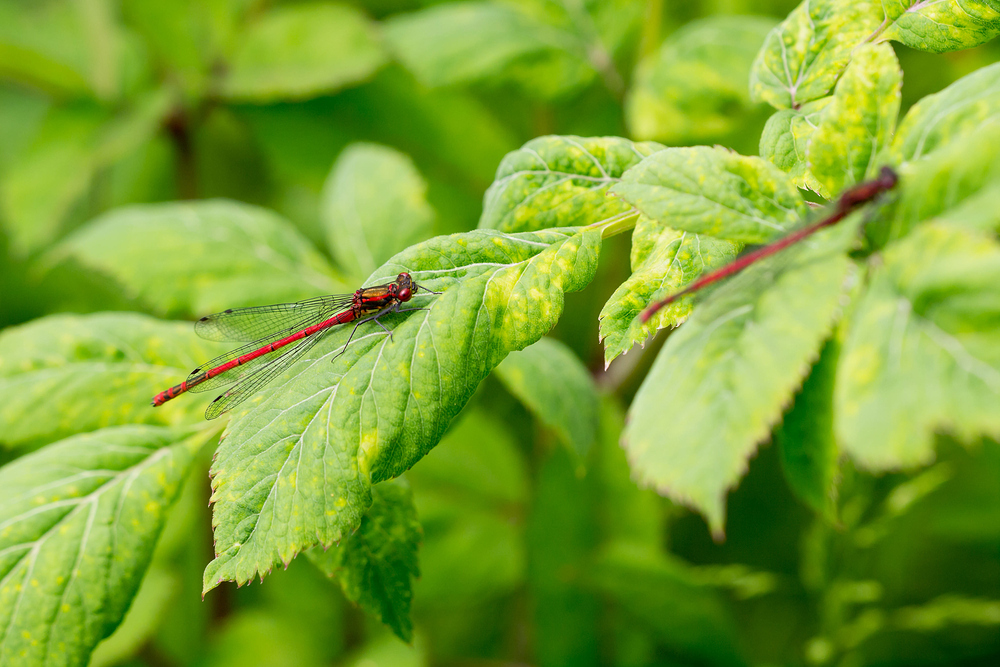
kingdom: Animalia
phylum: Arthropoda
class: Insecta
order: Odonata
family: Coenagrionidae
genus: Pyrrhosoma
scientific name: Pyrrhosoma nymphula
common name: Large red damsel
